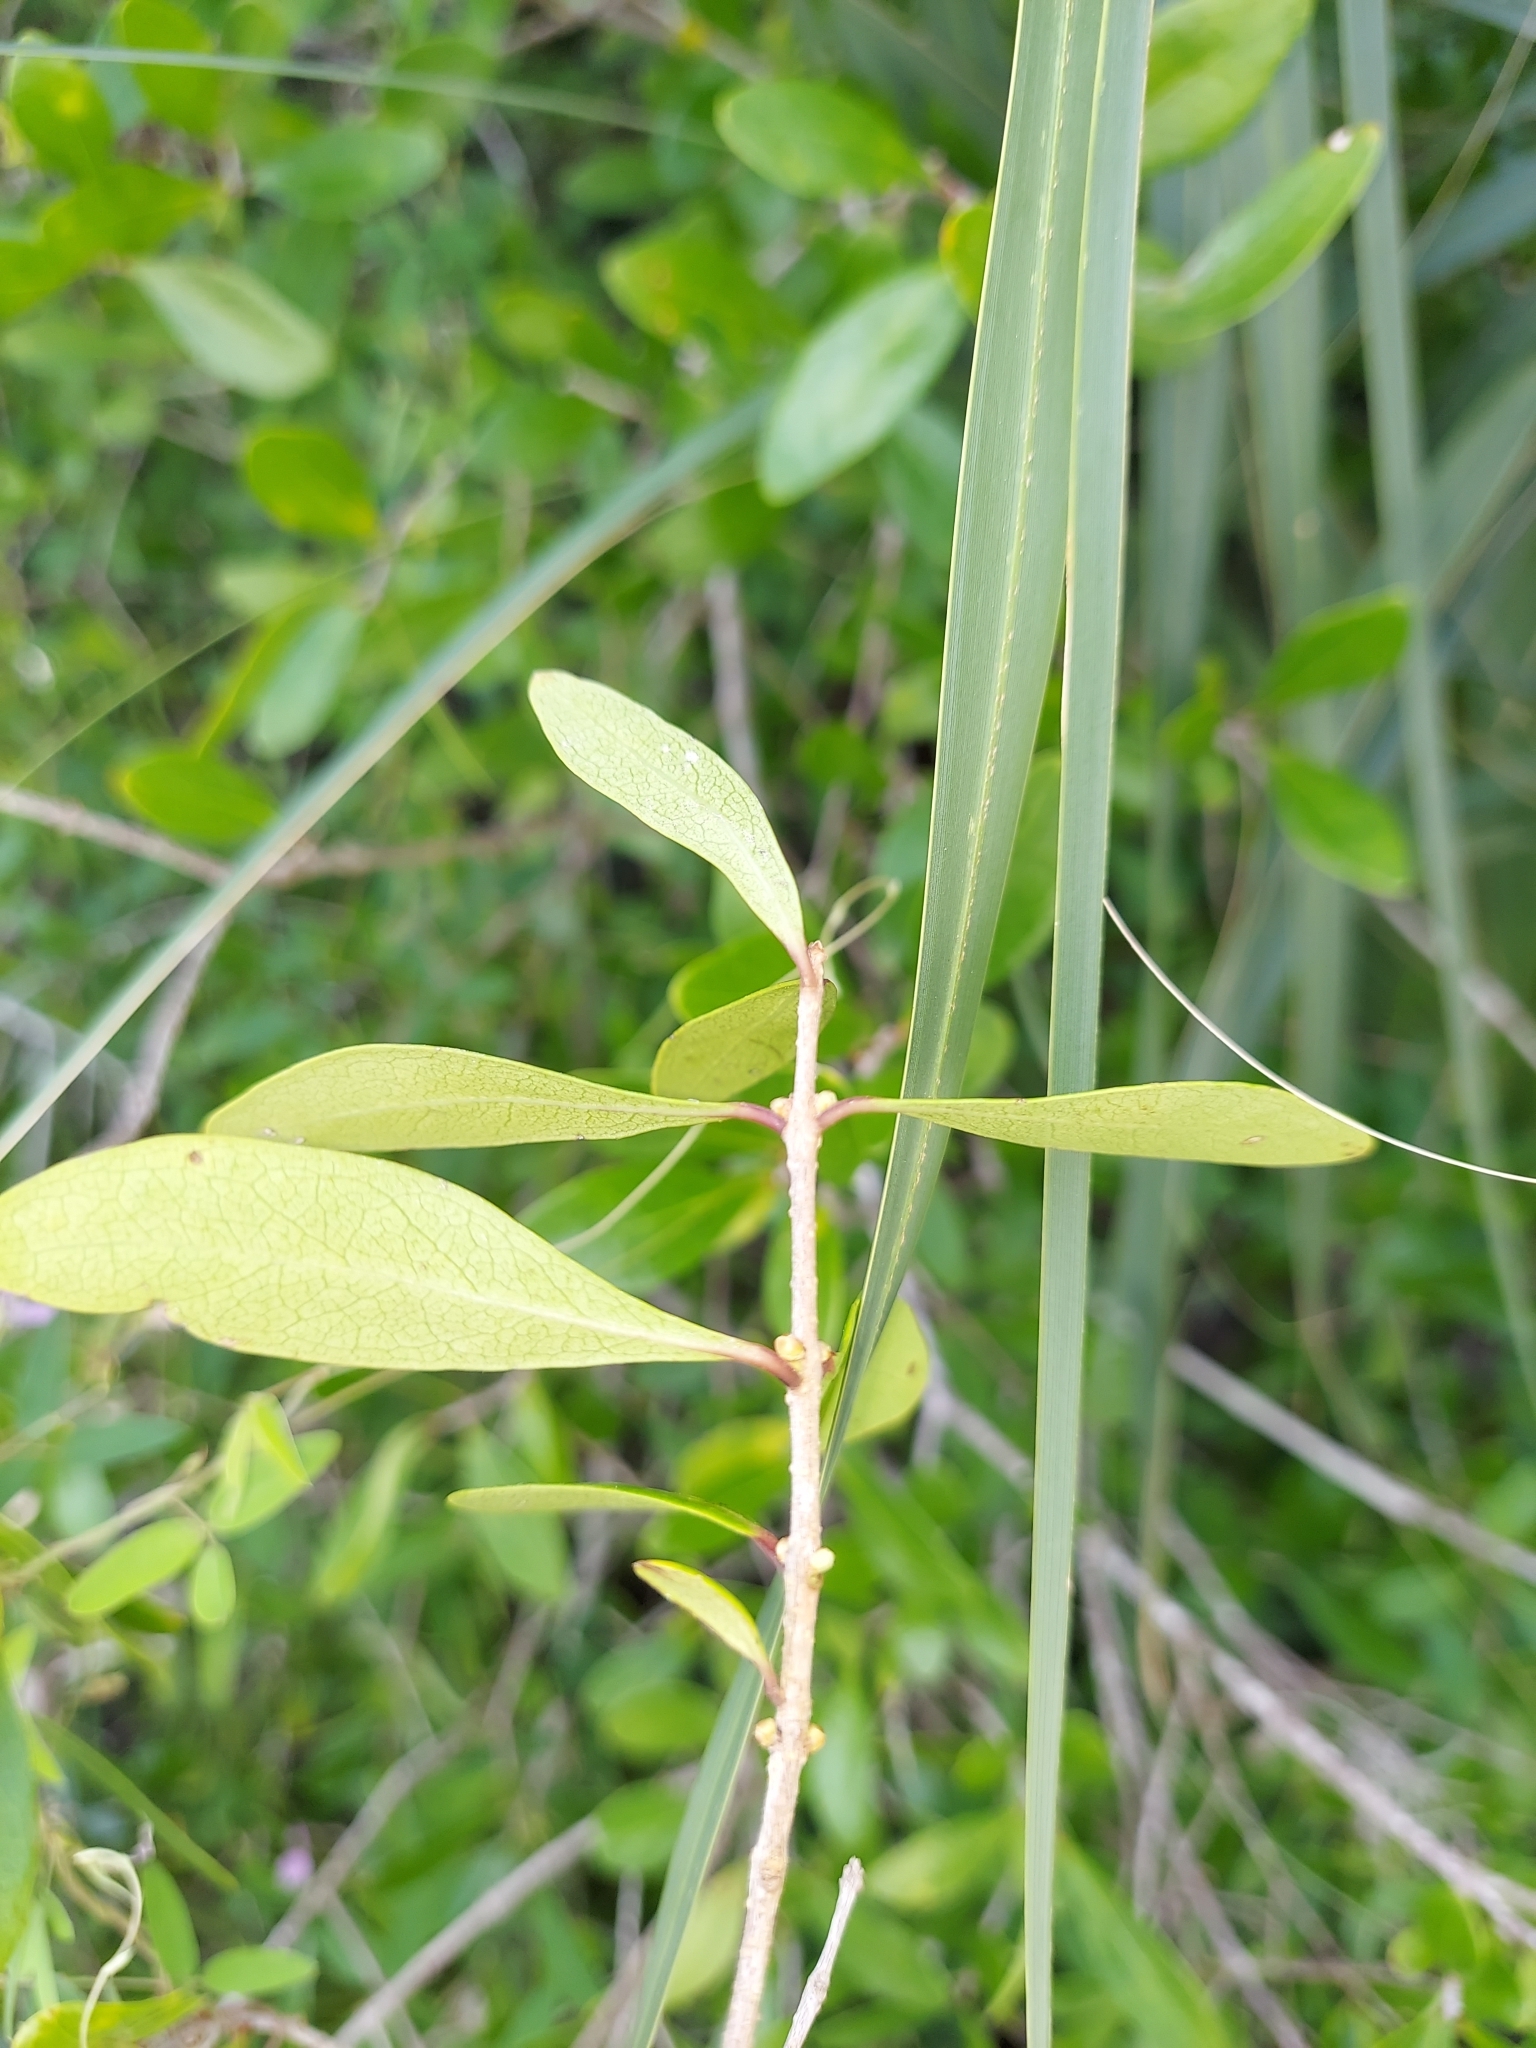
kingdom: Plantae
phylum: Tracheophyta
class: Magnoliopsida
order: Lamiales
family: Oleaceae
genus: Forestiera
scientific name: Forestiera segregata
